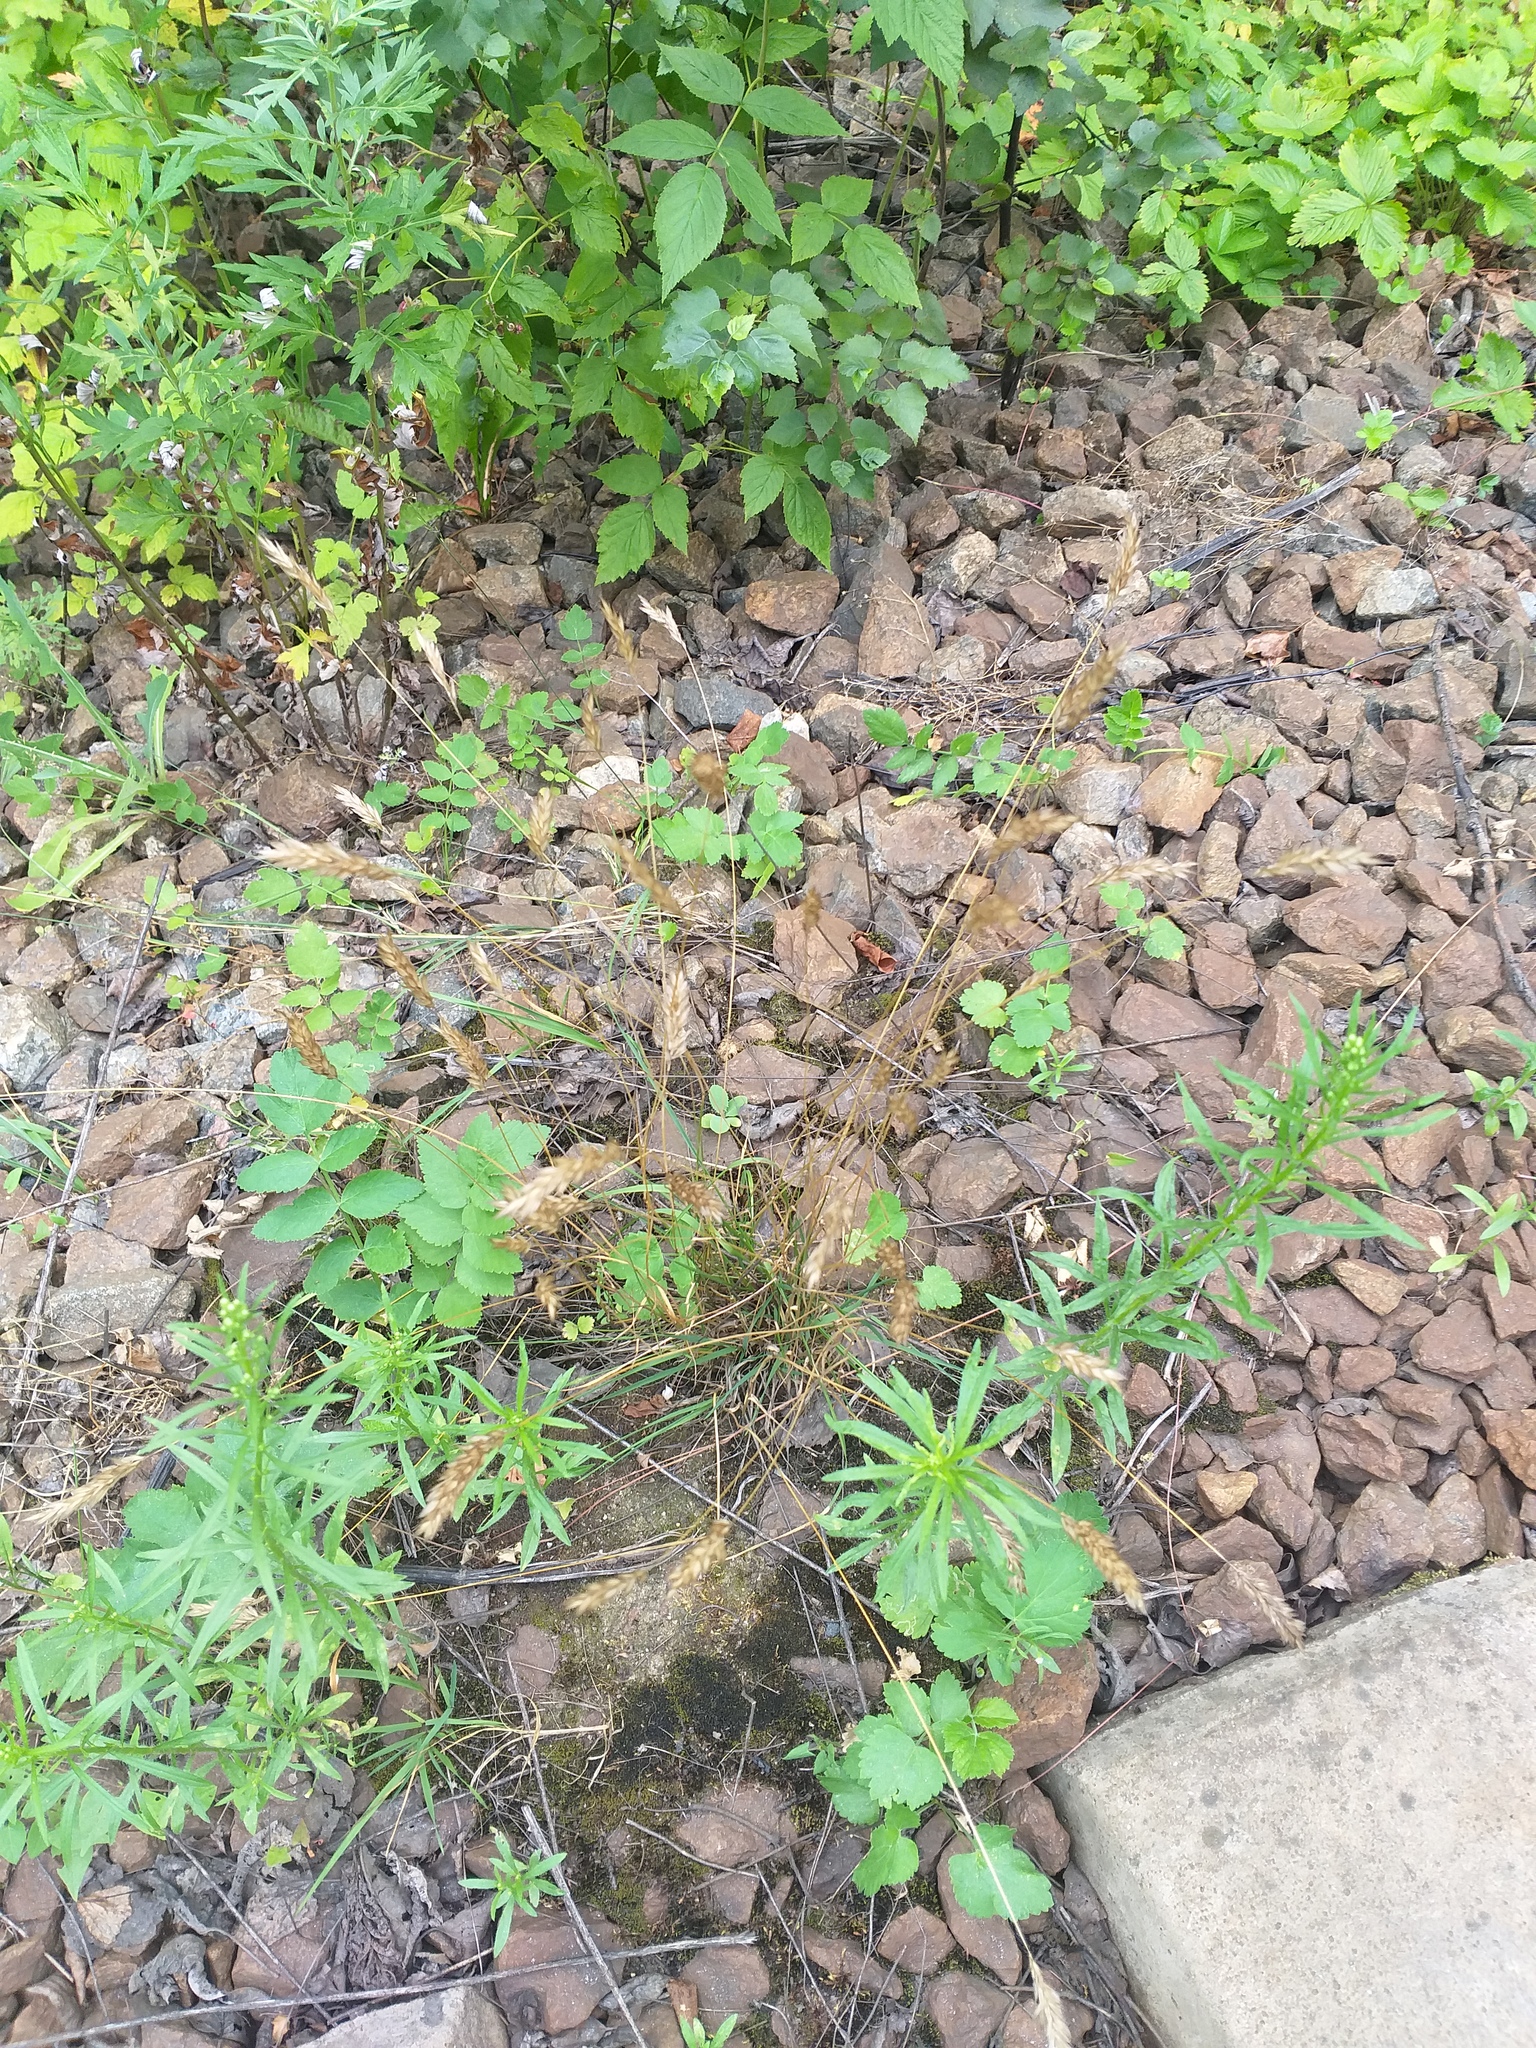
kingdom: Plantae
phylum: Tracheophyta
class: Liliopsida
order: Poales
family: Poaceae
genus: Anthoxanthum
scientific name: Anthoxanthum odoratum
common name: Sweet vernalgrass
